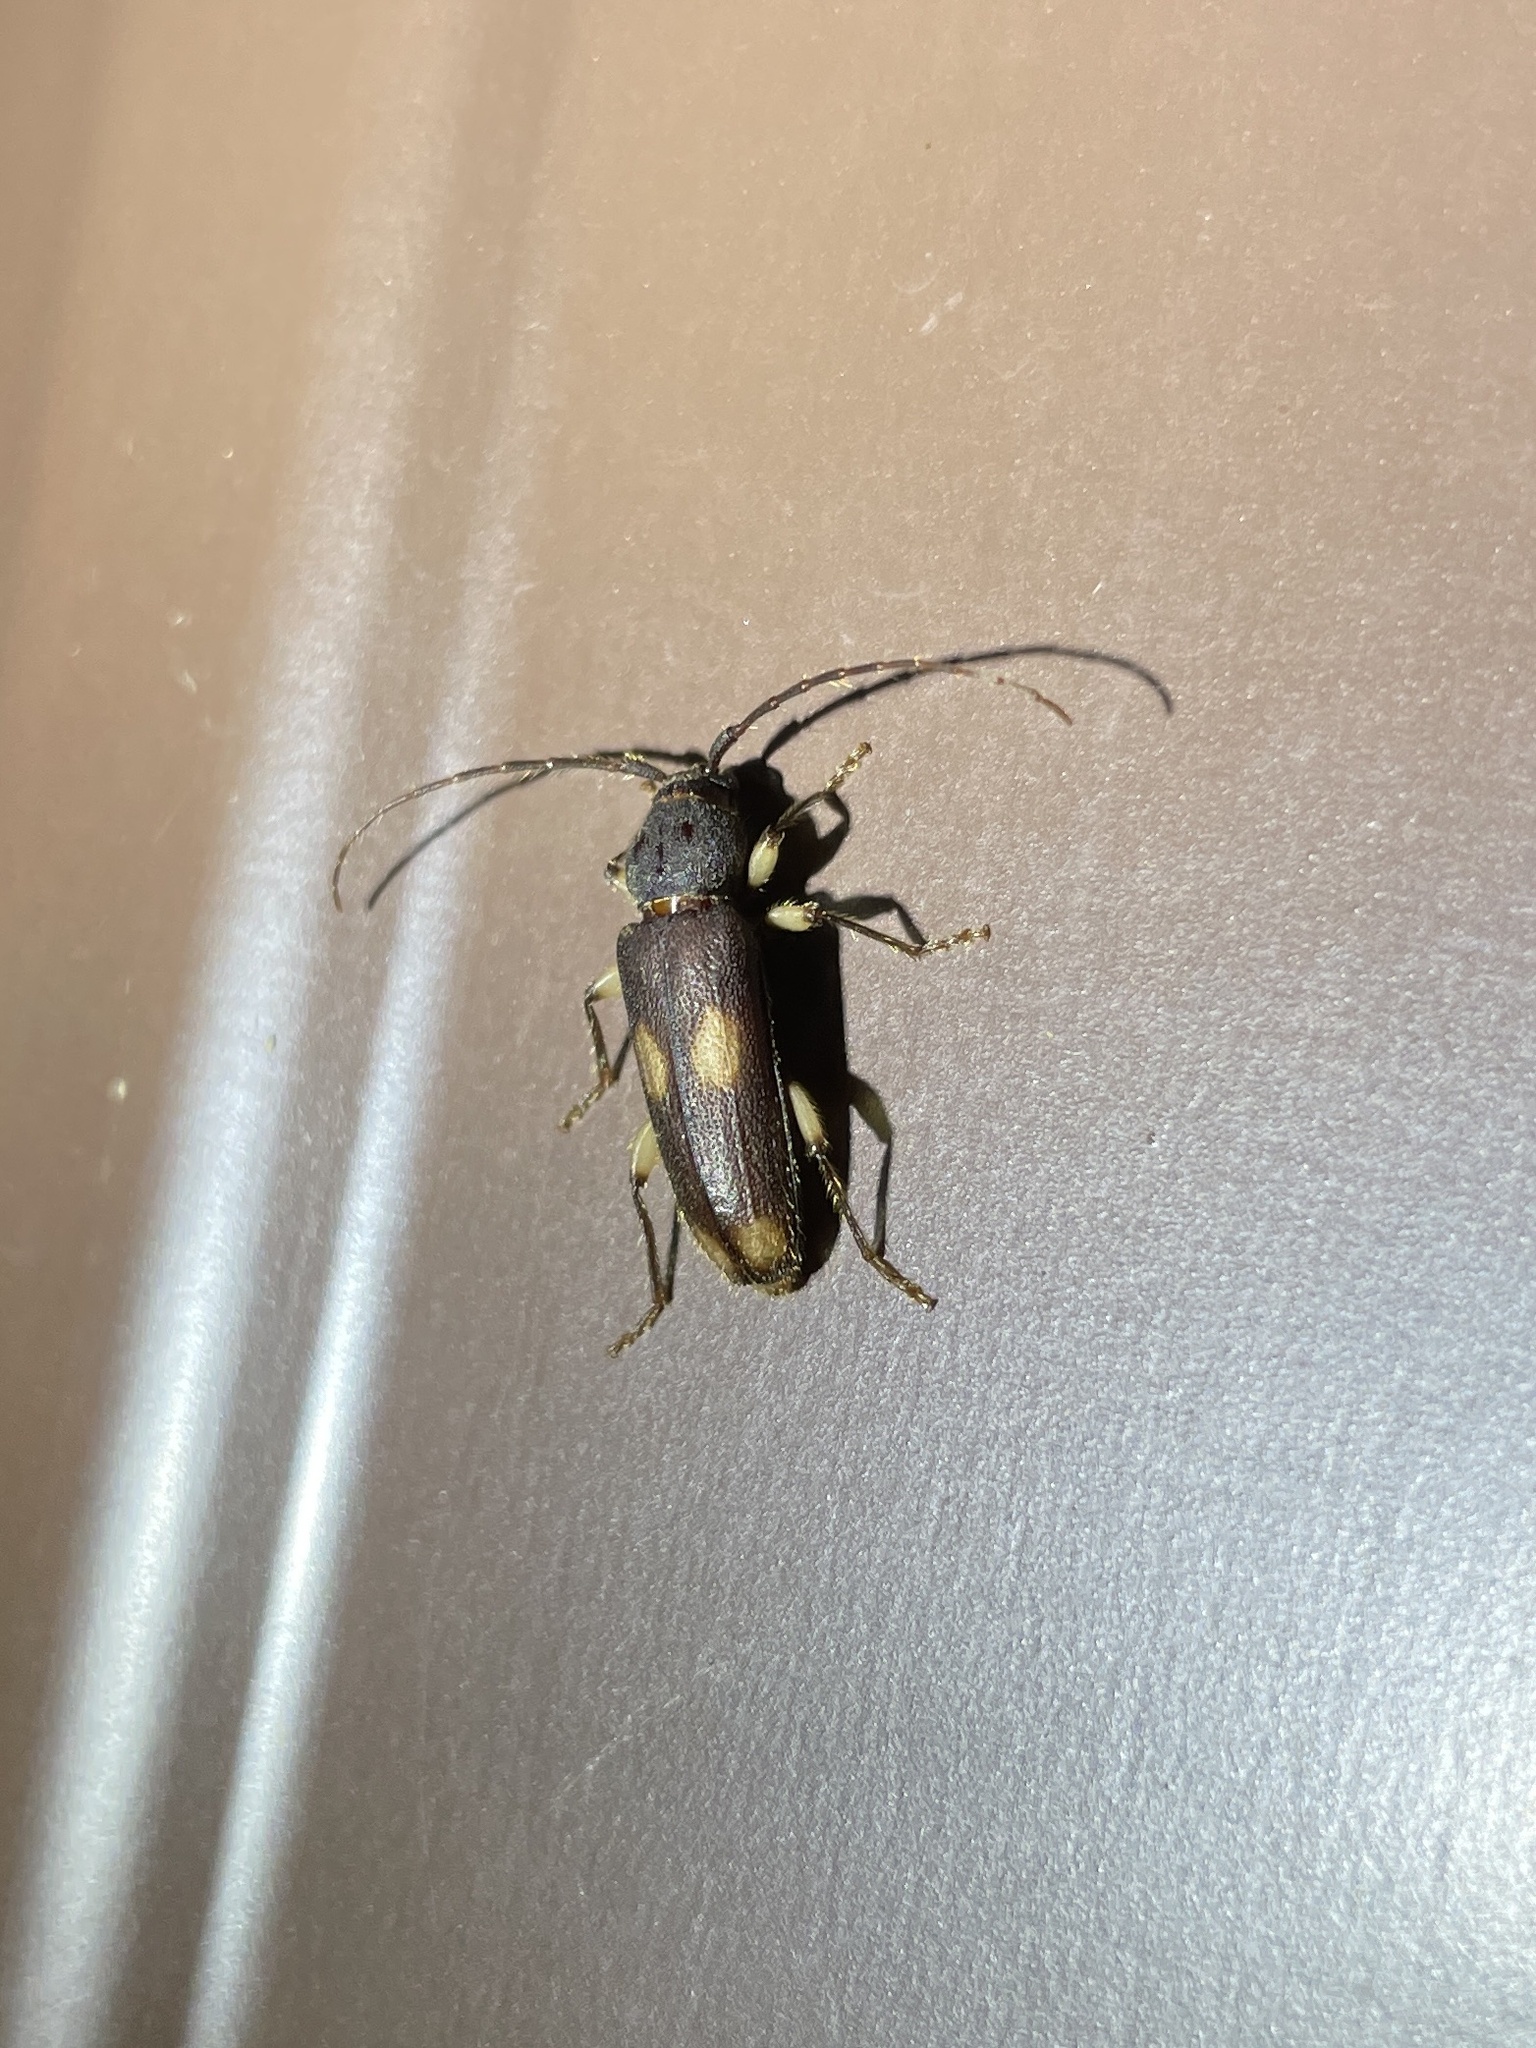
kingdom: Animalia
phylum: Arthropoda
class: Insecta
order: Coleoptera
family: Cerambycidae
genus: Tylonotus
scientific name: Tylonotus bimaculatus
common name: Ash and privet borer
